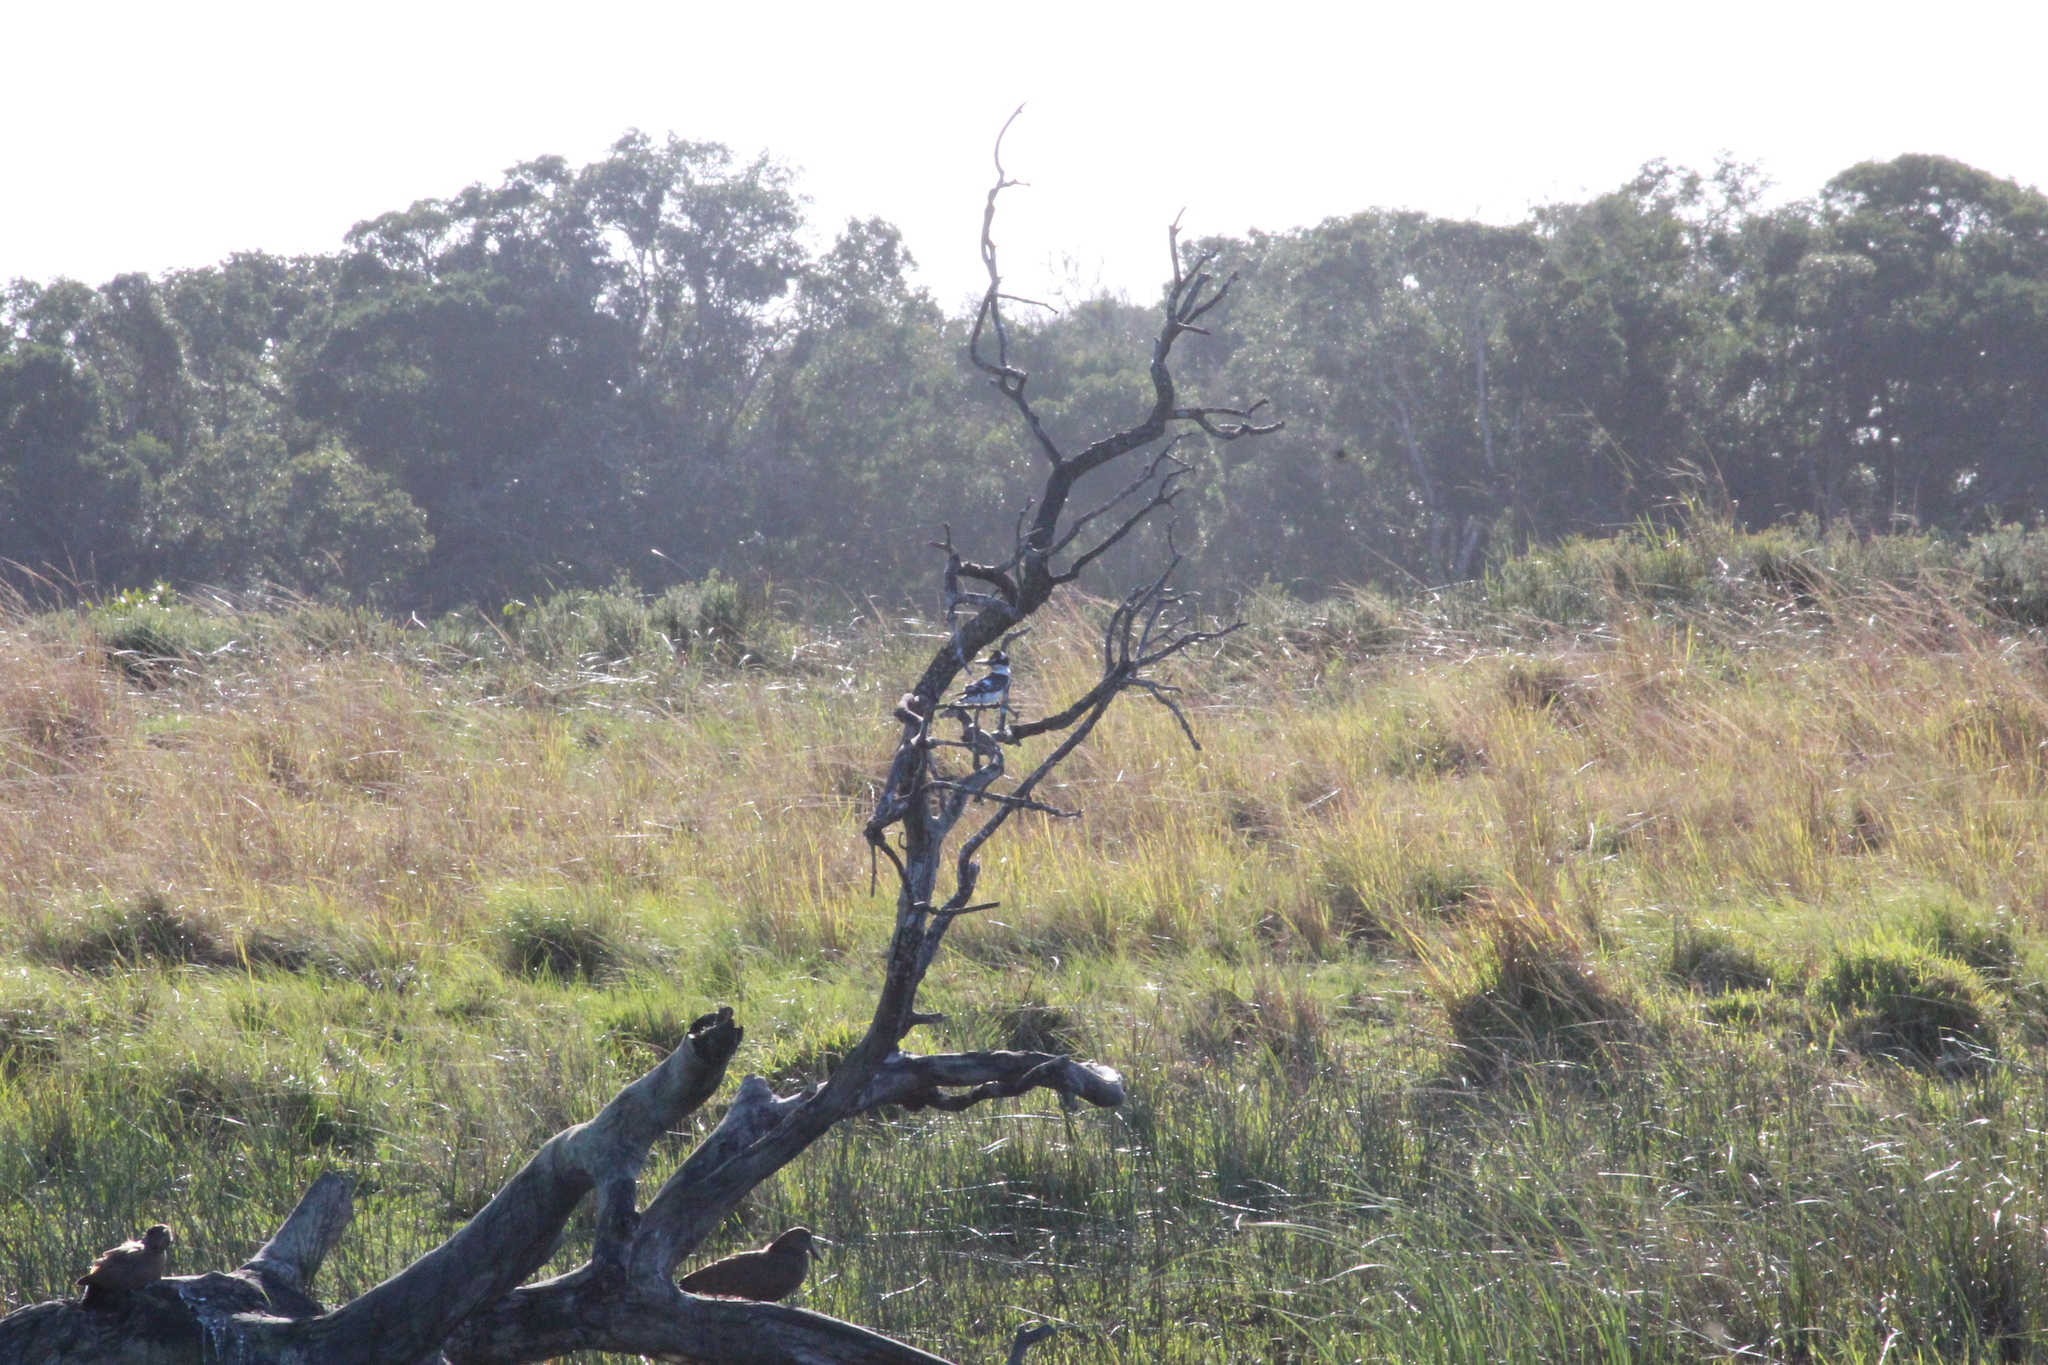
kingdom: Animalia
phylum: Chordata
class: Aves
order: Coraciiformes
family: Alcedinidae
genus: Ceryle
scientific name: Ceryle rudis
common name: Pied kingfisher
